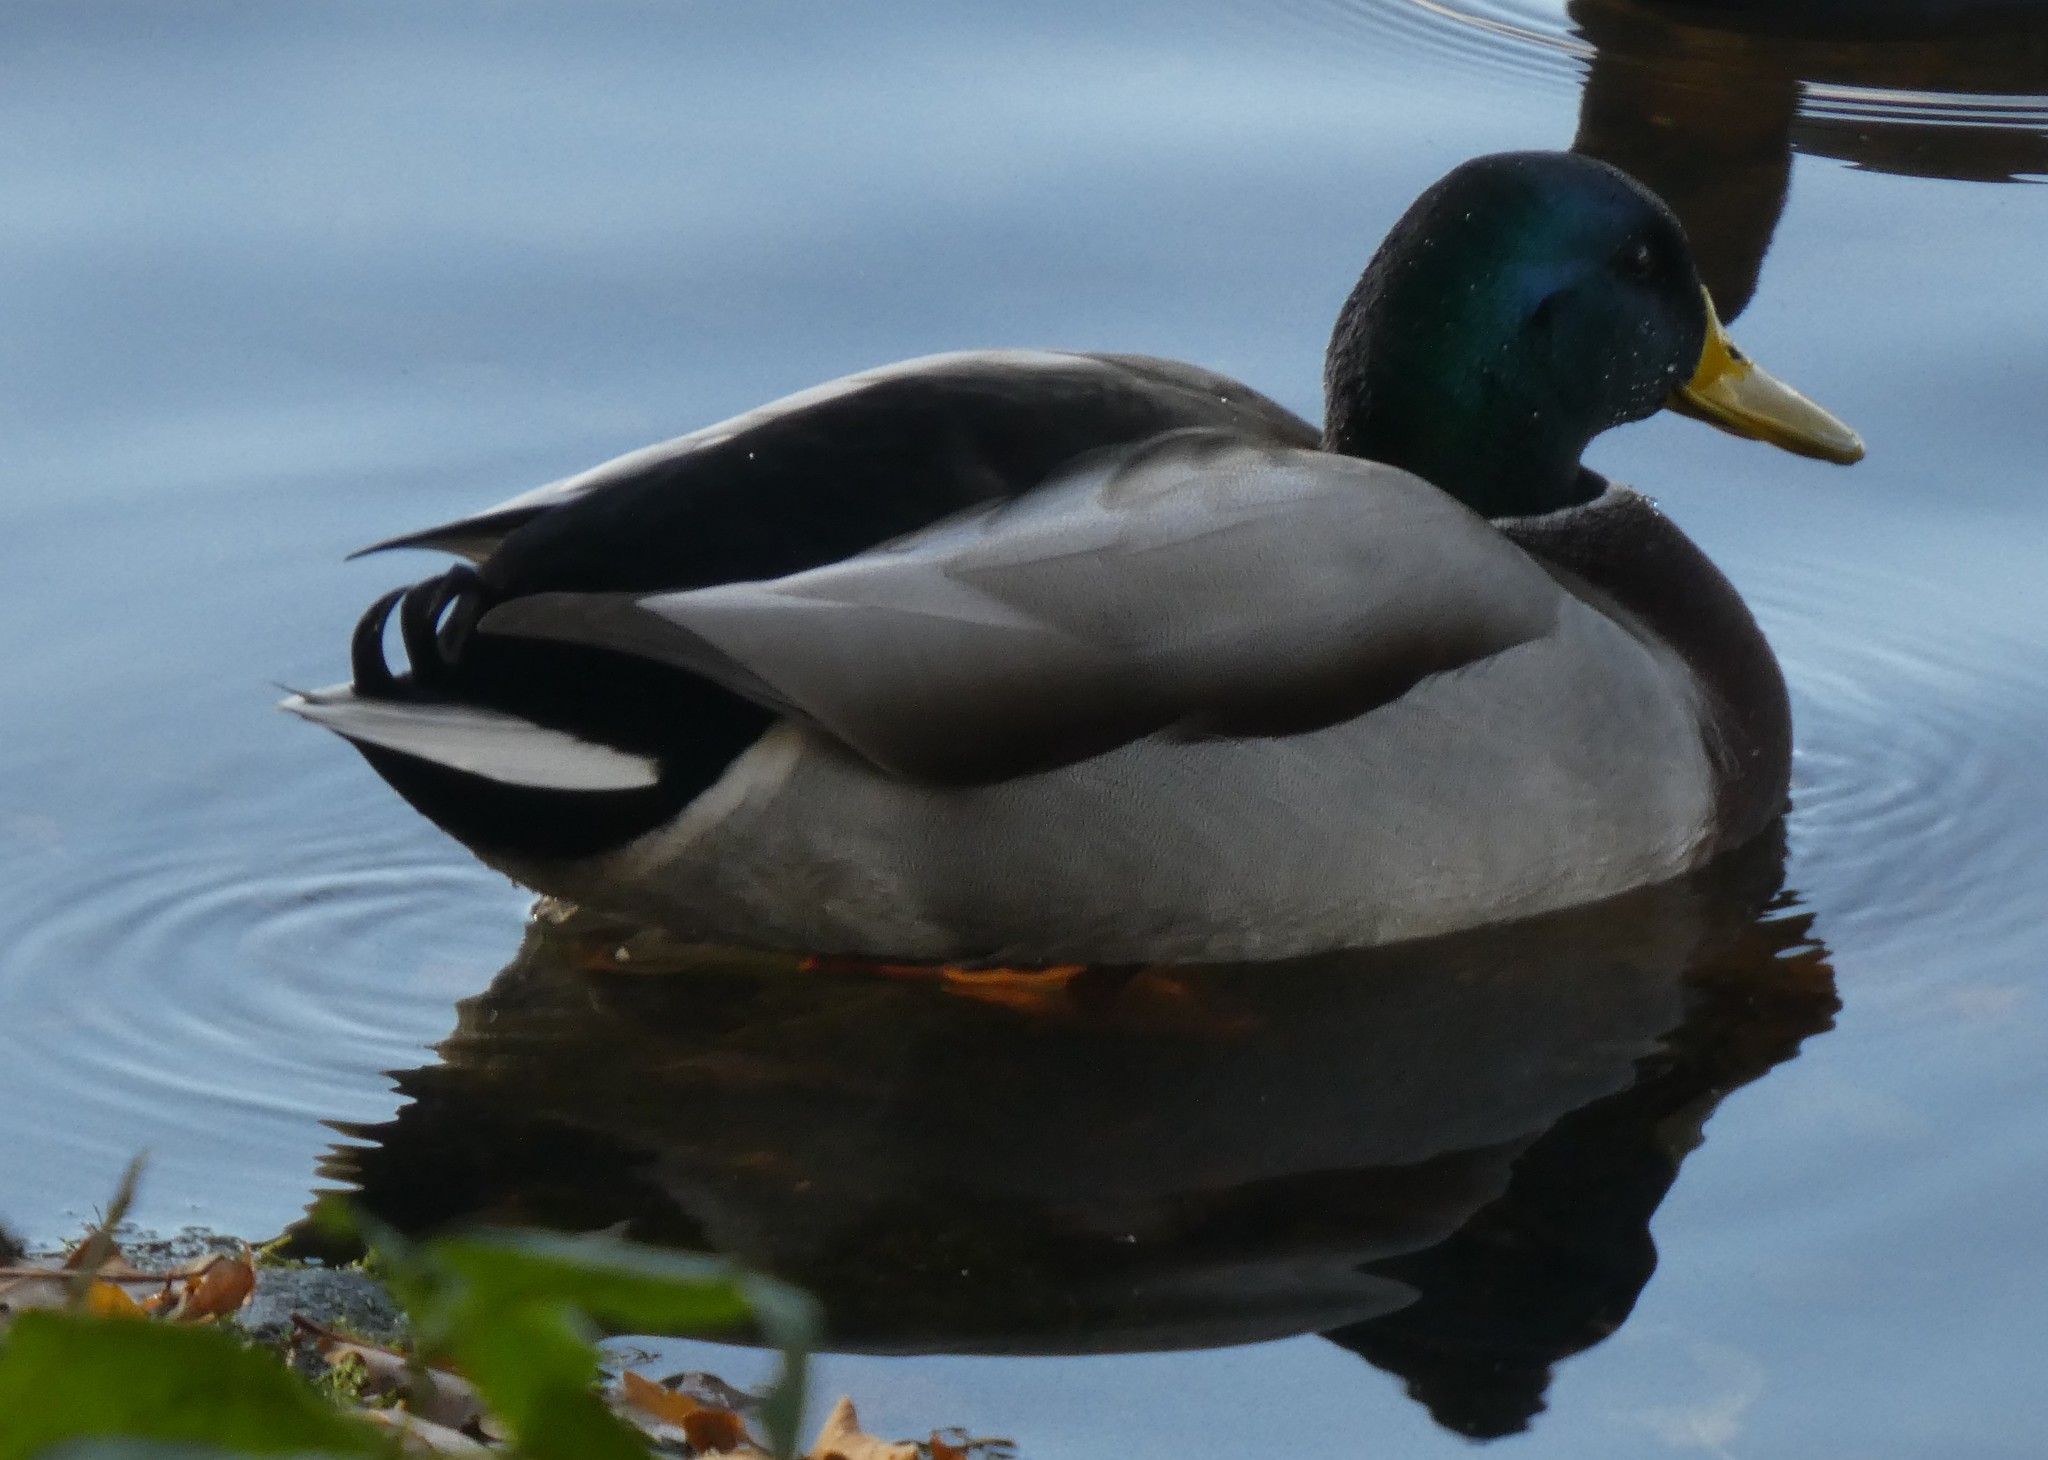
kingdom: Animalia
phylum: Chordata
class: Aves
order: Anseriformes
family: Anatidae
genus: Anas
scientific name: Anas platyrhynchos
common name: Mallard
